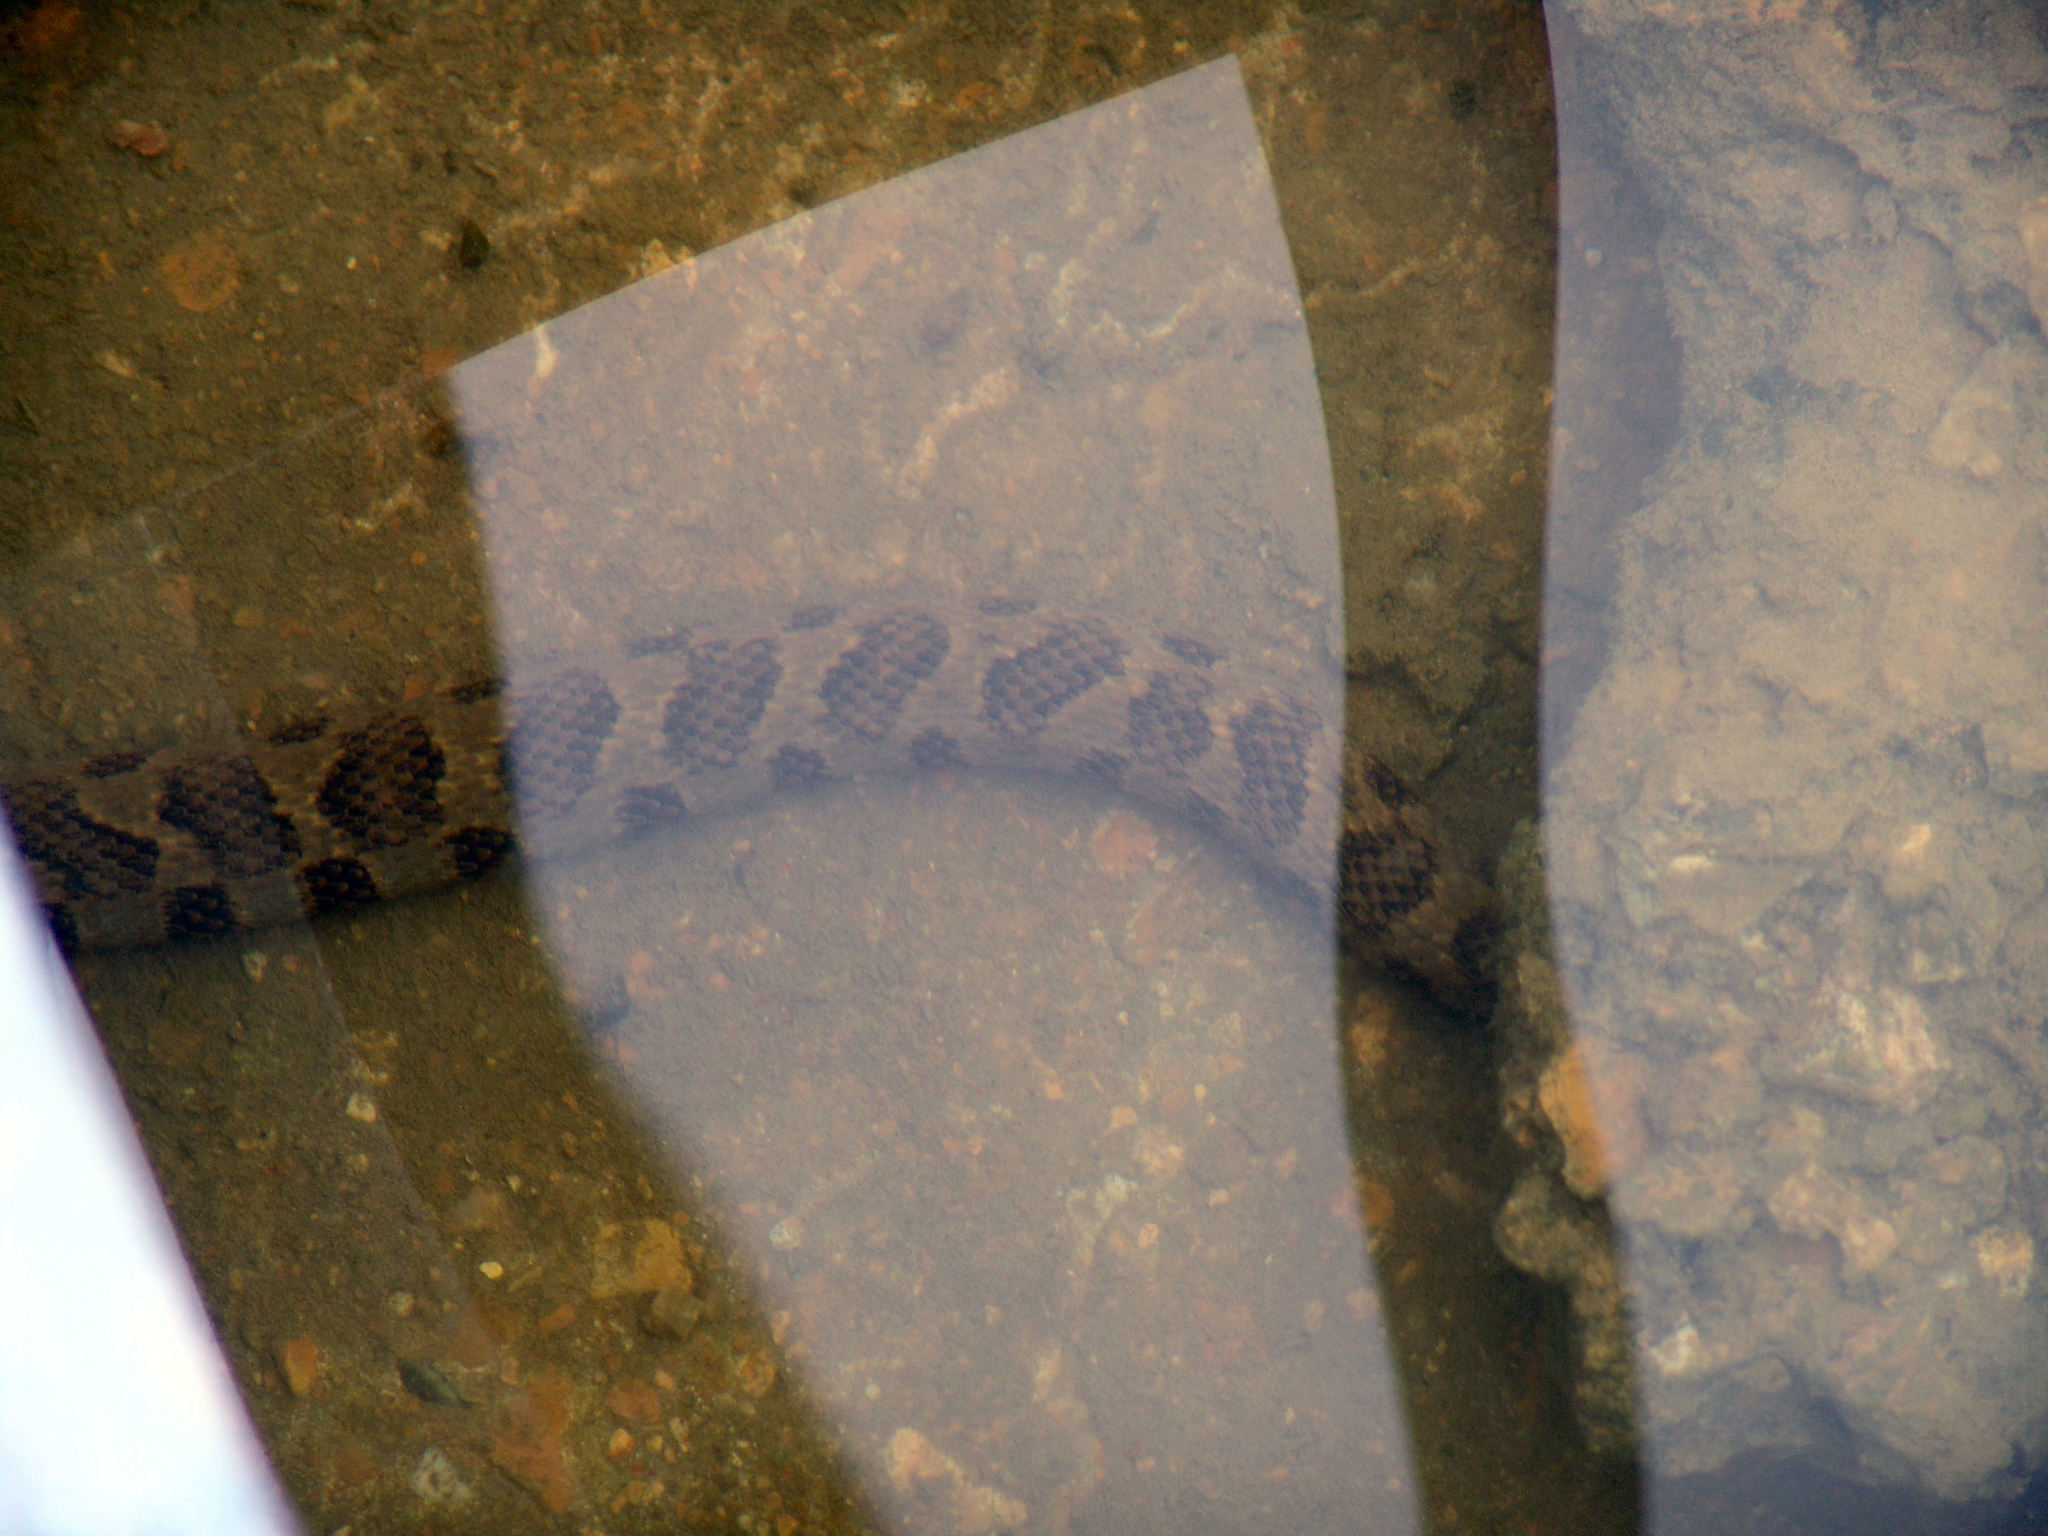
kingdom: Animalia
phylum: Chordata
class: Squamata
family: Colubridae
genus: Nerodia
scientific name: Nerodia sipedon
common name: Northern water snake
